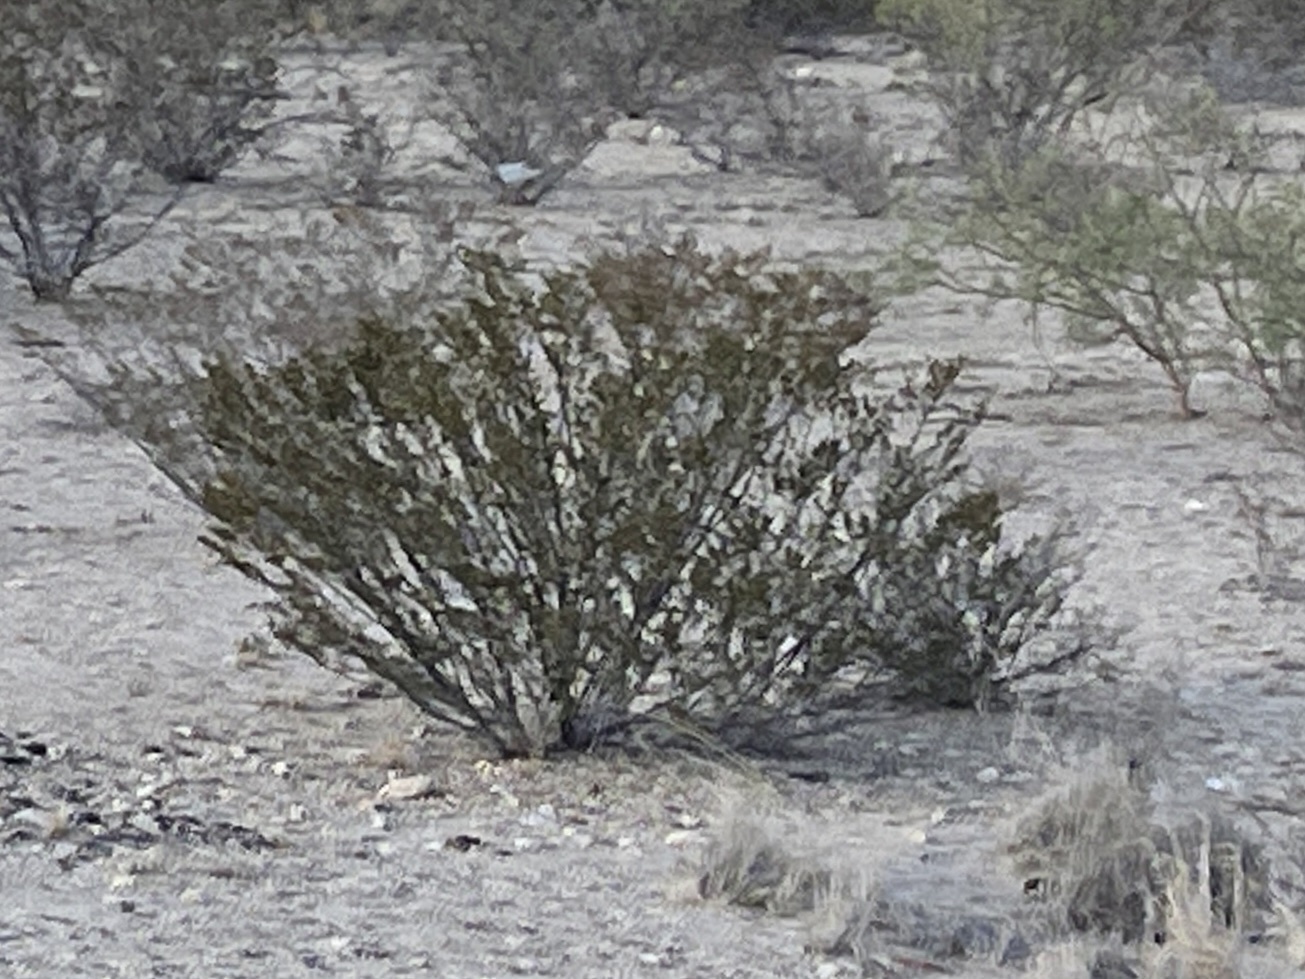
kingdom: Plantae
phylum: Tracheophyta
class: Magnoliopsida
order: Zygophyllales
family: Zygophyllaceae
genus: Larrea
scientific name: Larrea tridentata
